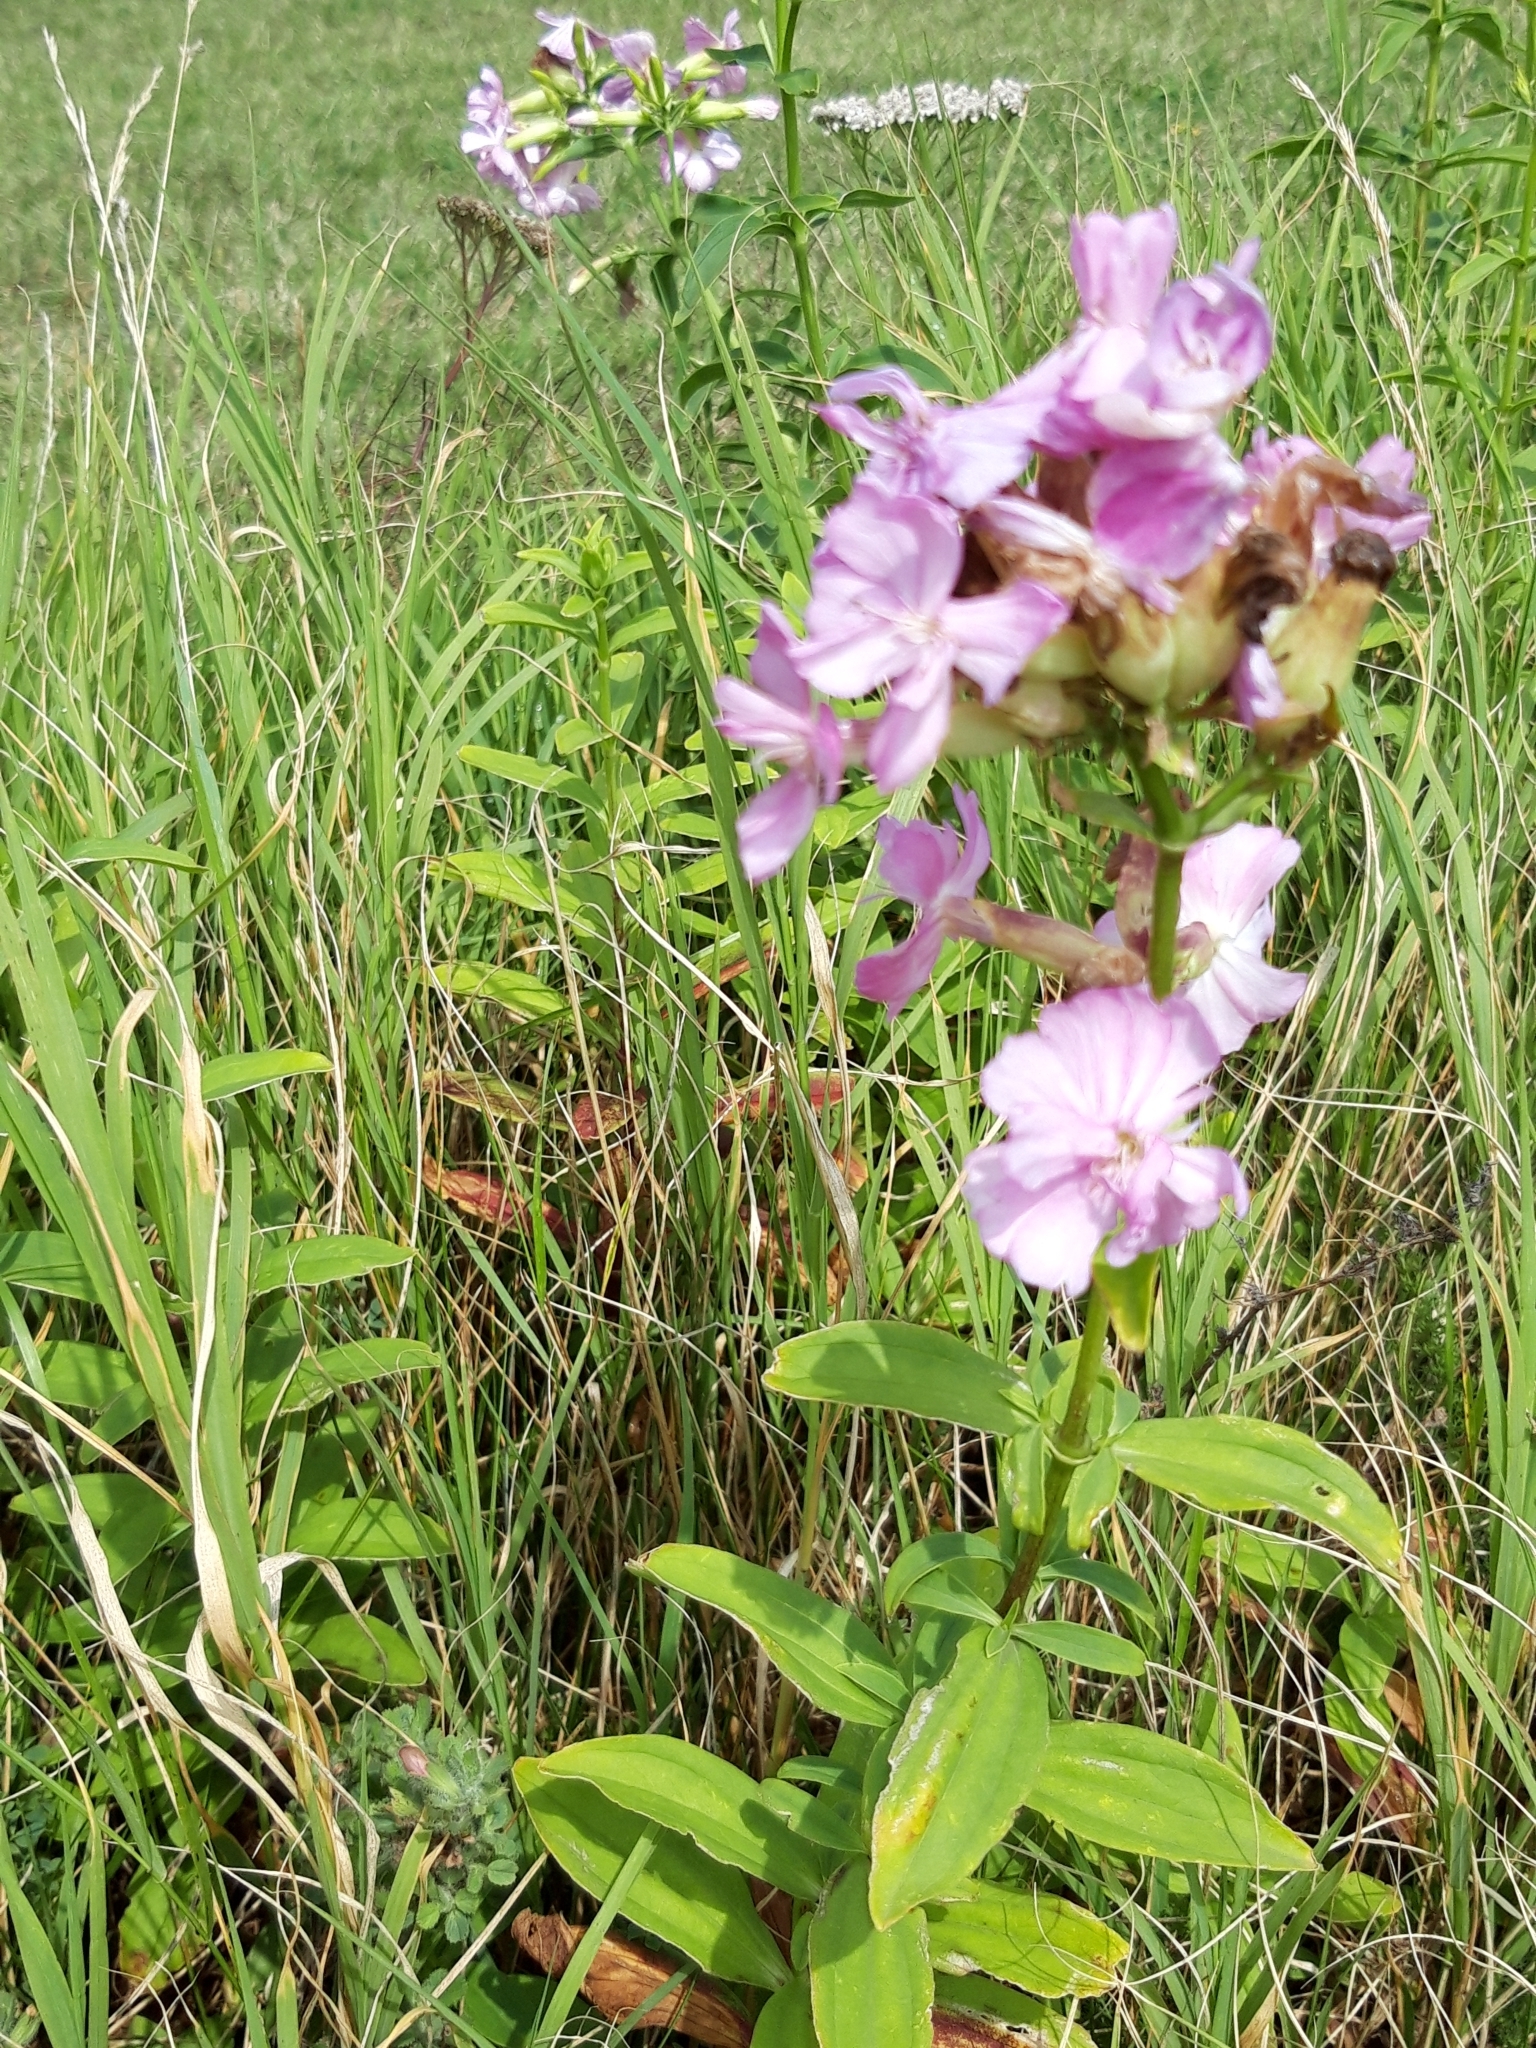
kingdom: Plantae
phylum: Tracheophyta
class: Magnoliopsida
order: Caryophyllales
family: Caryophyllaceae
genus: Saponaria
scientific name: Saponaria officinalis
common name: Soapwort
